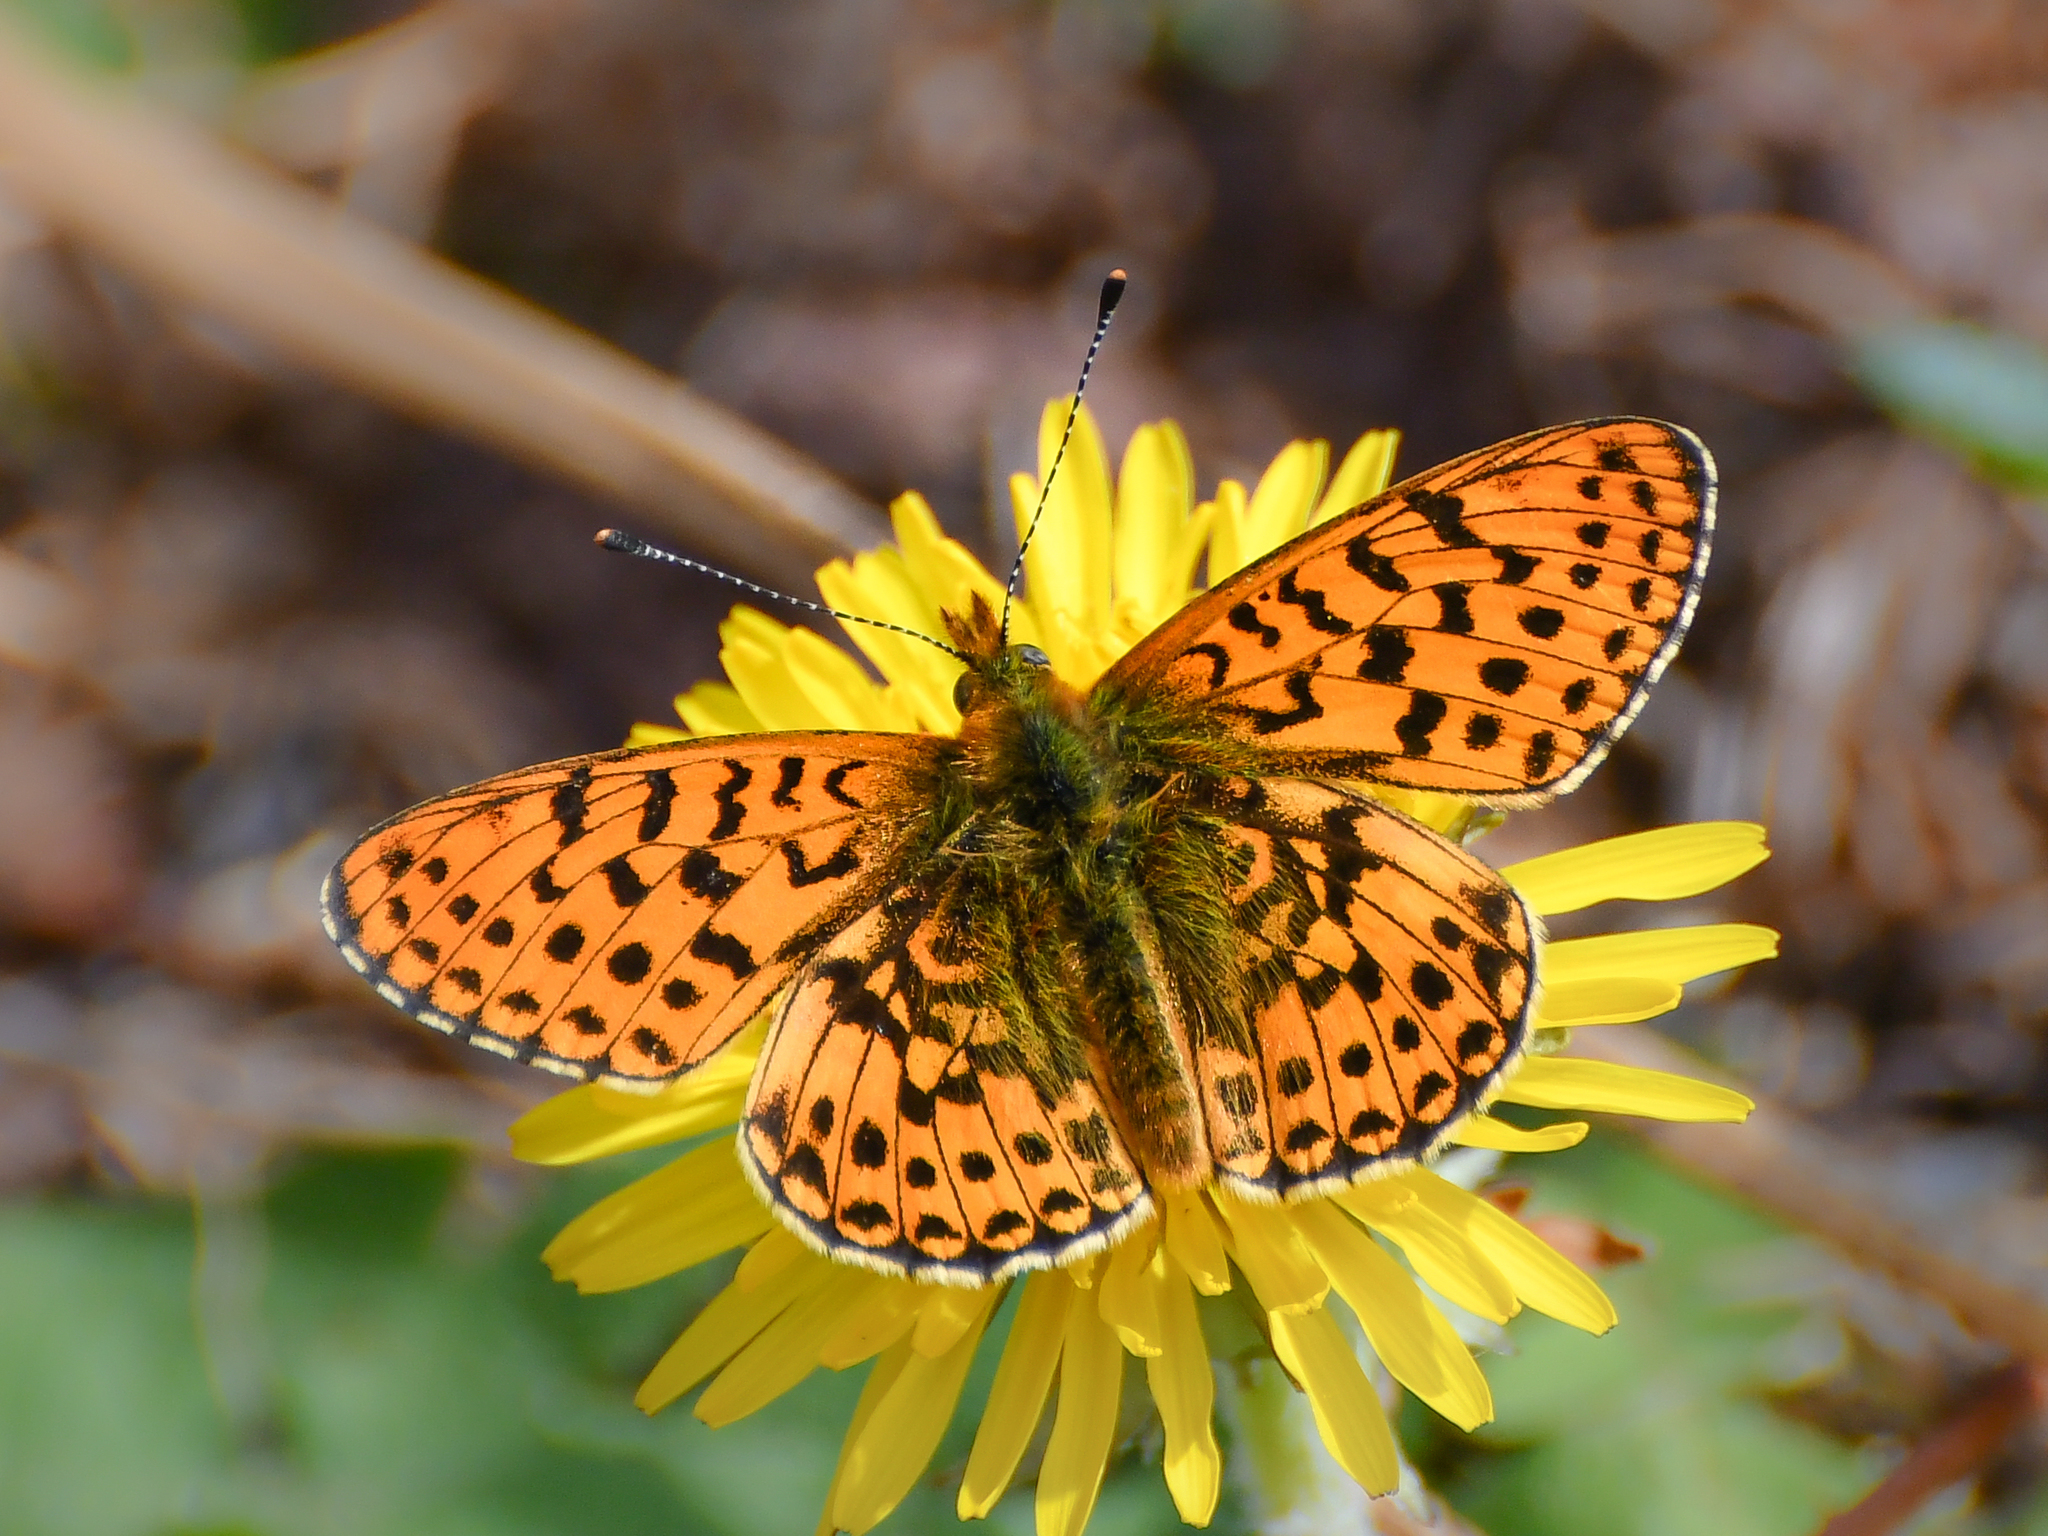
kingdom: Animalia
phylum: Arthropoda
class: Insecta
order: Lepidoptera
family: Nymphalidae
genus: Clossiana
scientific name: Clossiana euphrosyne
